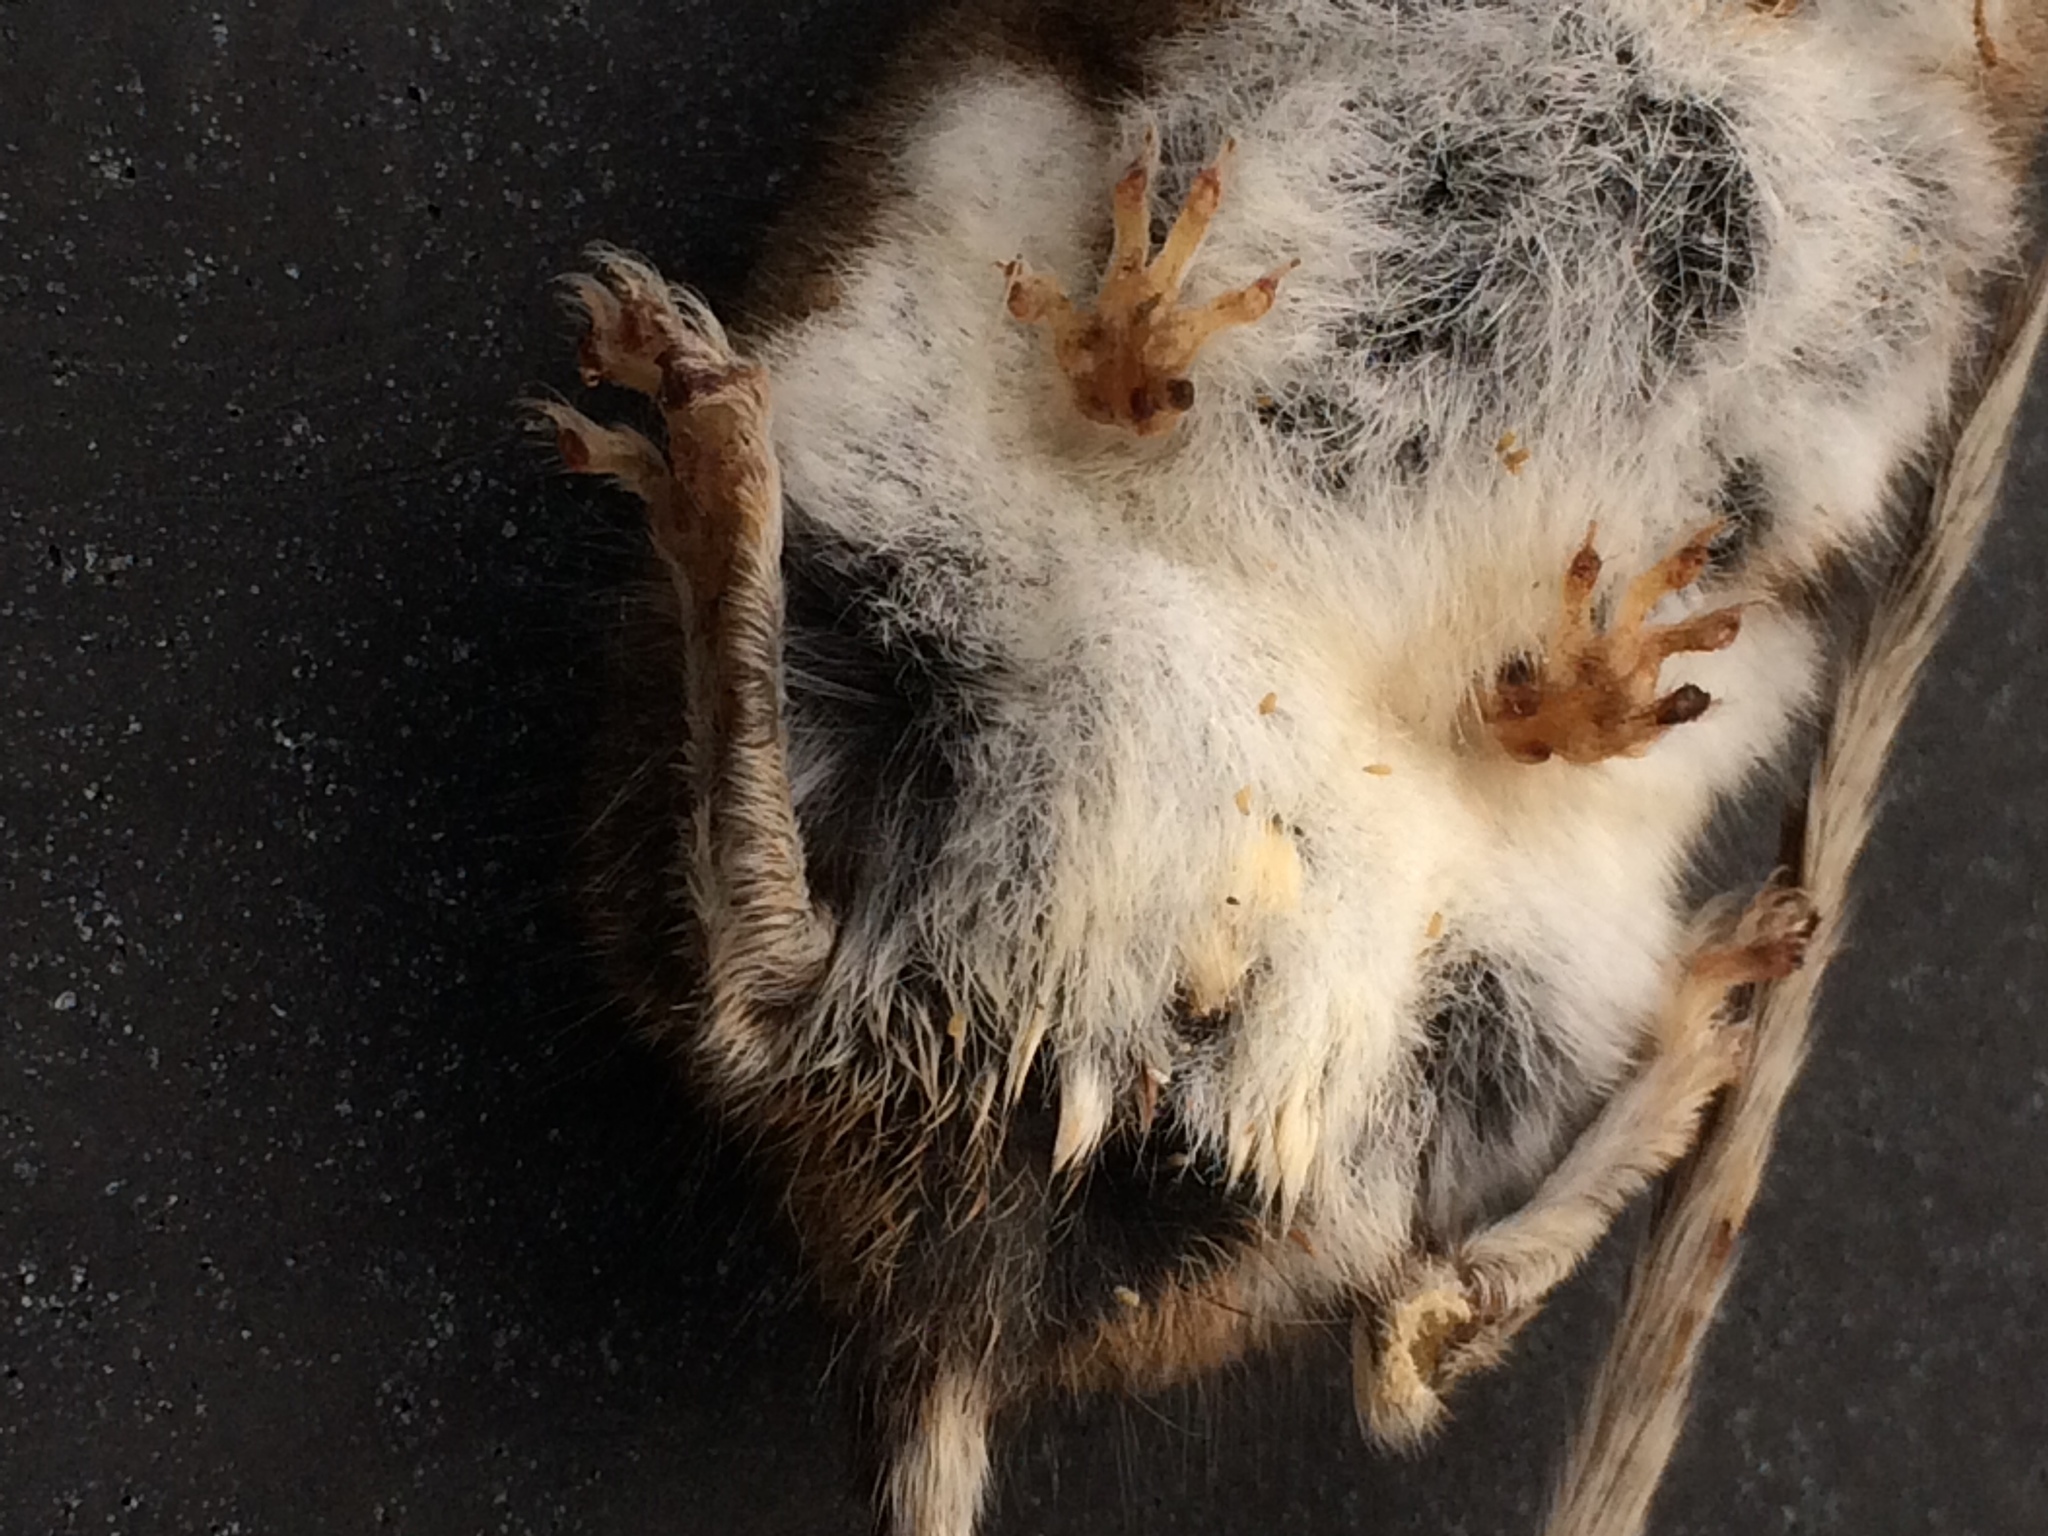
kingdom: Animalia
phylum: Chordata
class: Mammalia
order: Rodentia
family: Cricetidae
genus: Peromyscus
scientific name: Peromyscus maniculatus
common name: Deer mouse
